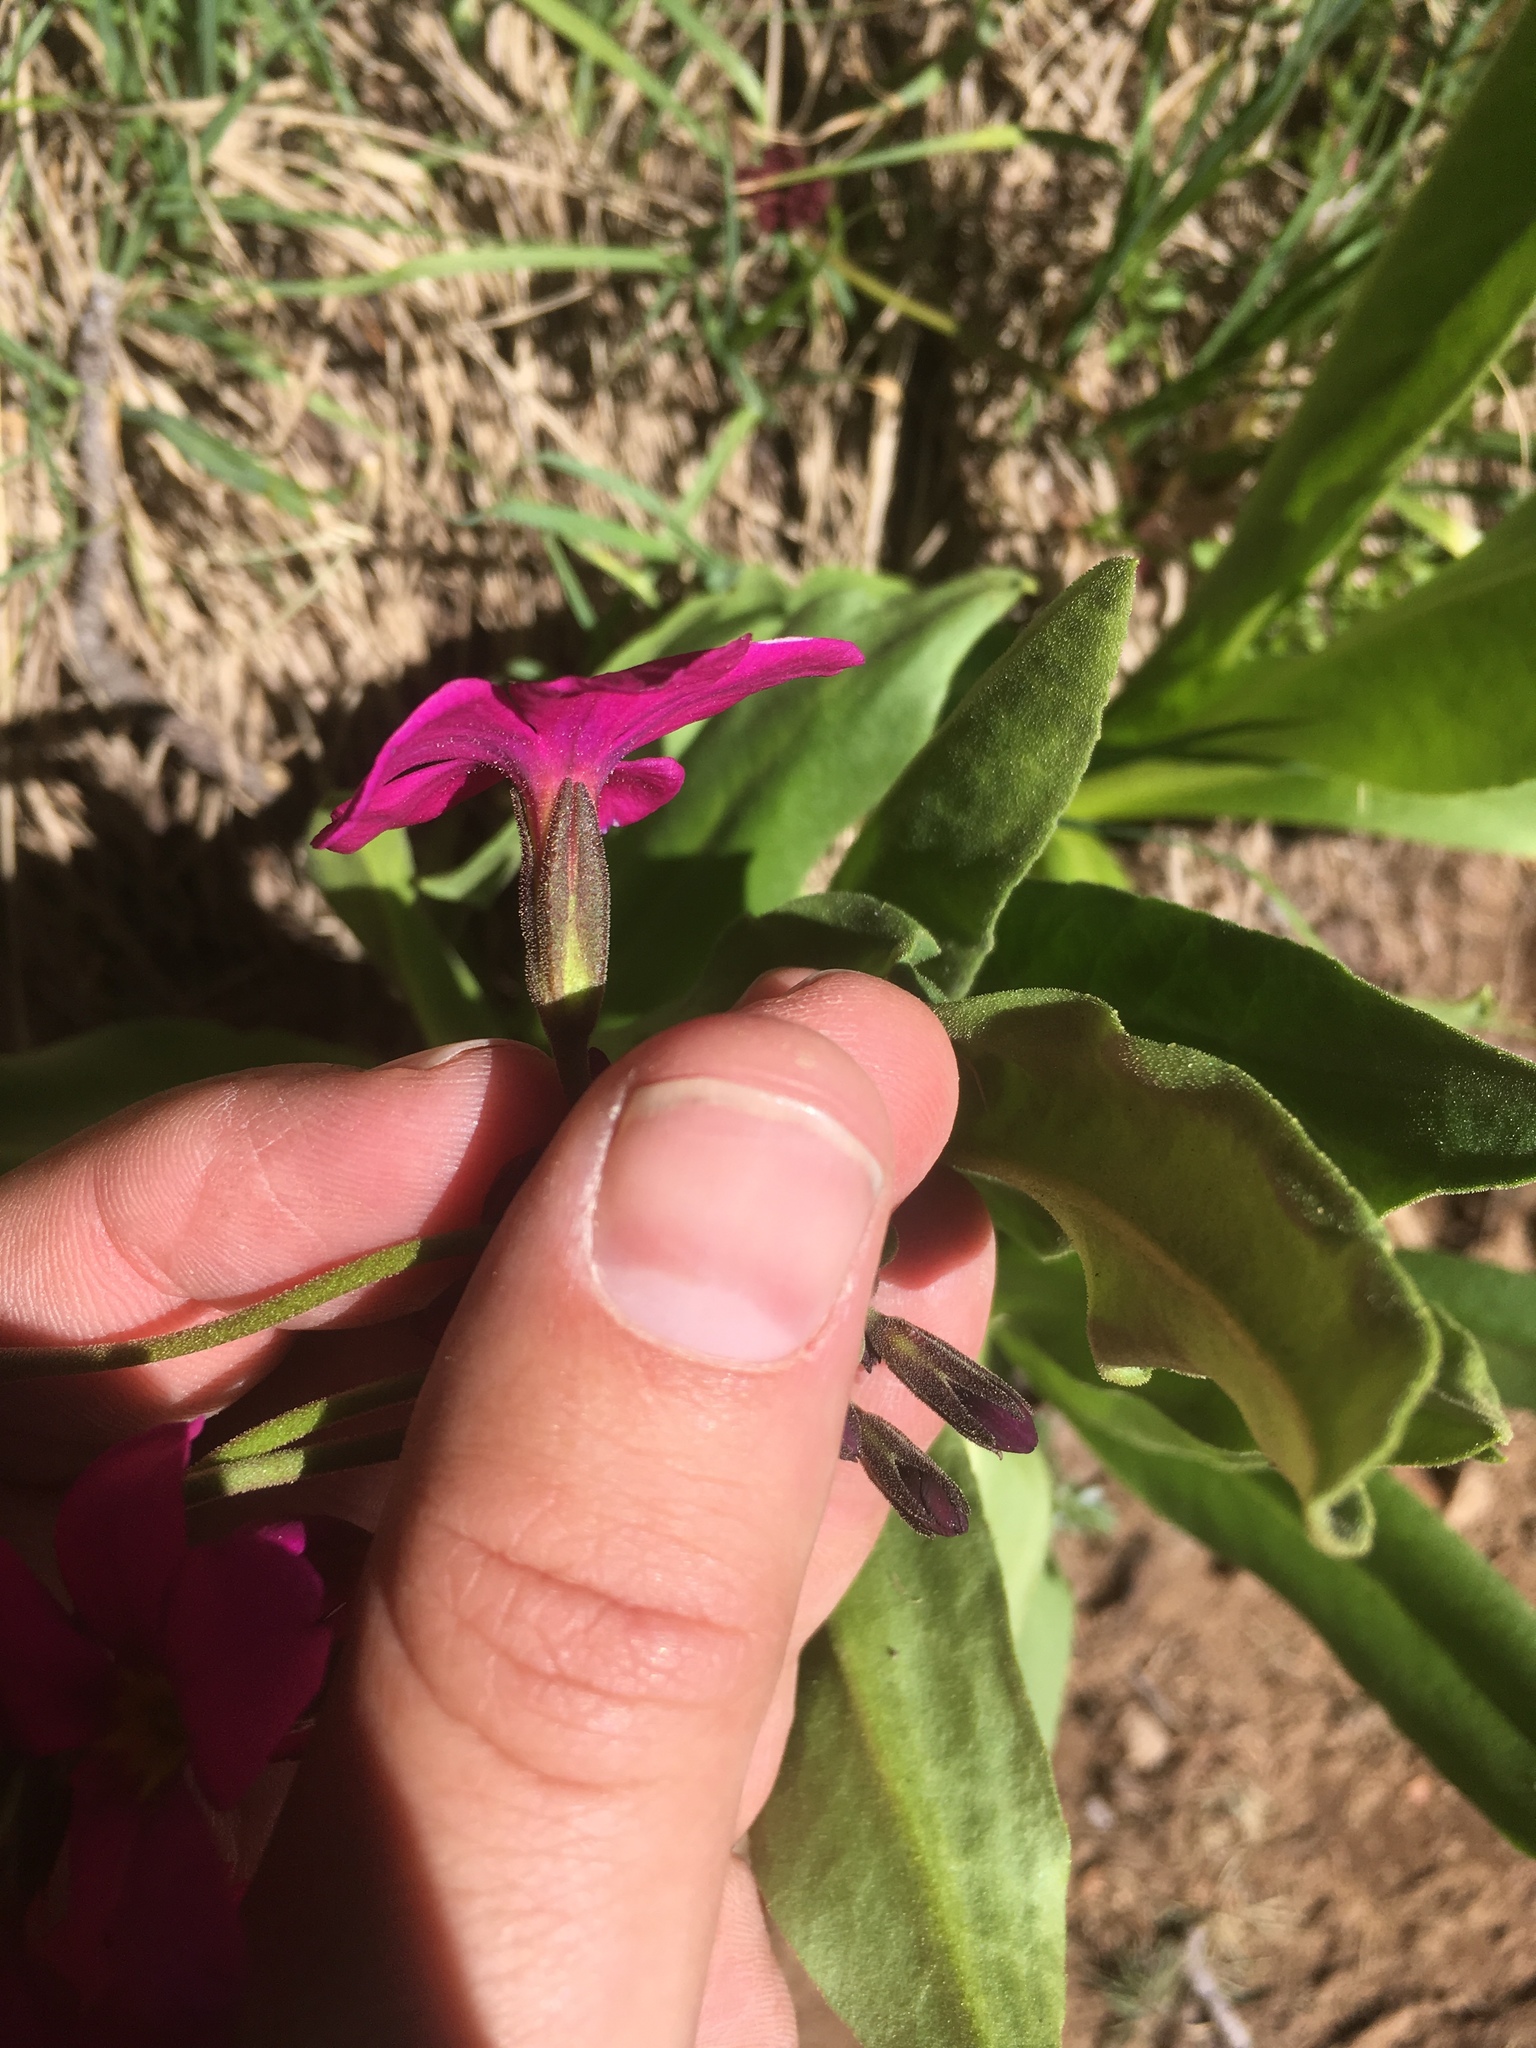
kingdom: Plantae
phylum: Tracheophyta
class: Magnoliopsida
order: Ericales
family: Primulaceae
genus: Primula
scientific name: Primula parryi
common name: Parry's primrose
